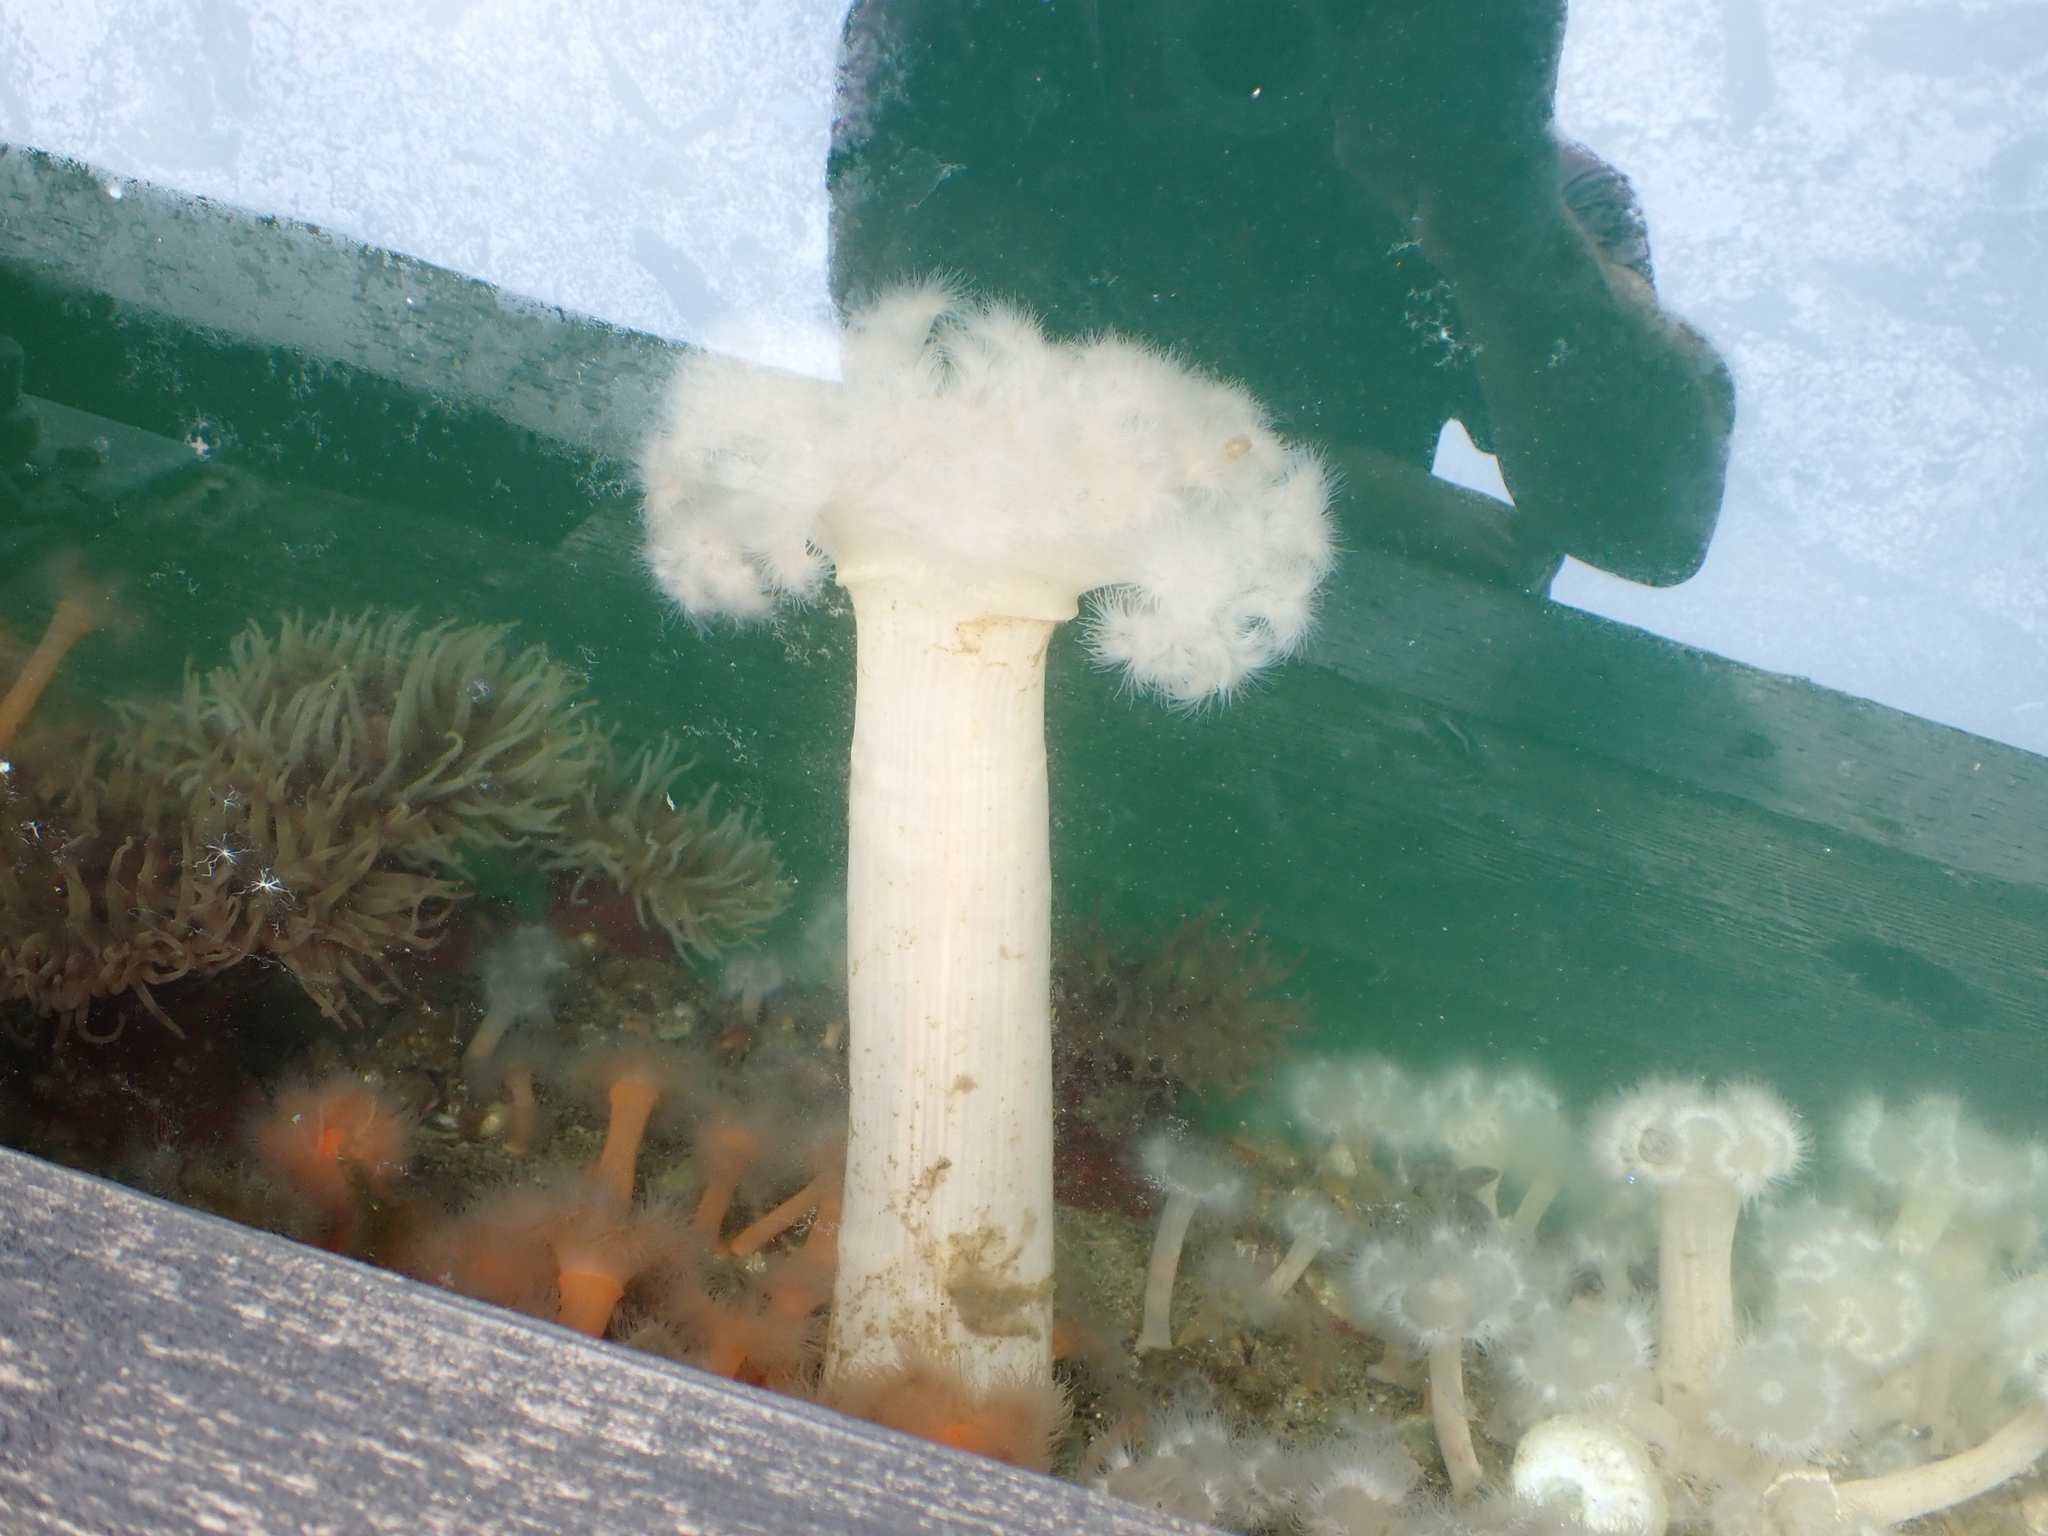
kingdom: Animalia
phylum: Cnidaria
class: Anthozoa
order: Actiniaria
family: Metridiidae
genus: Metridium
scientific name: Metridium farcimen
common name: Gigantic anemone
